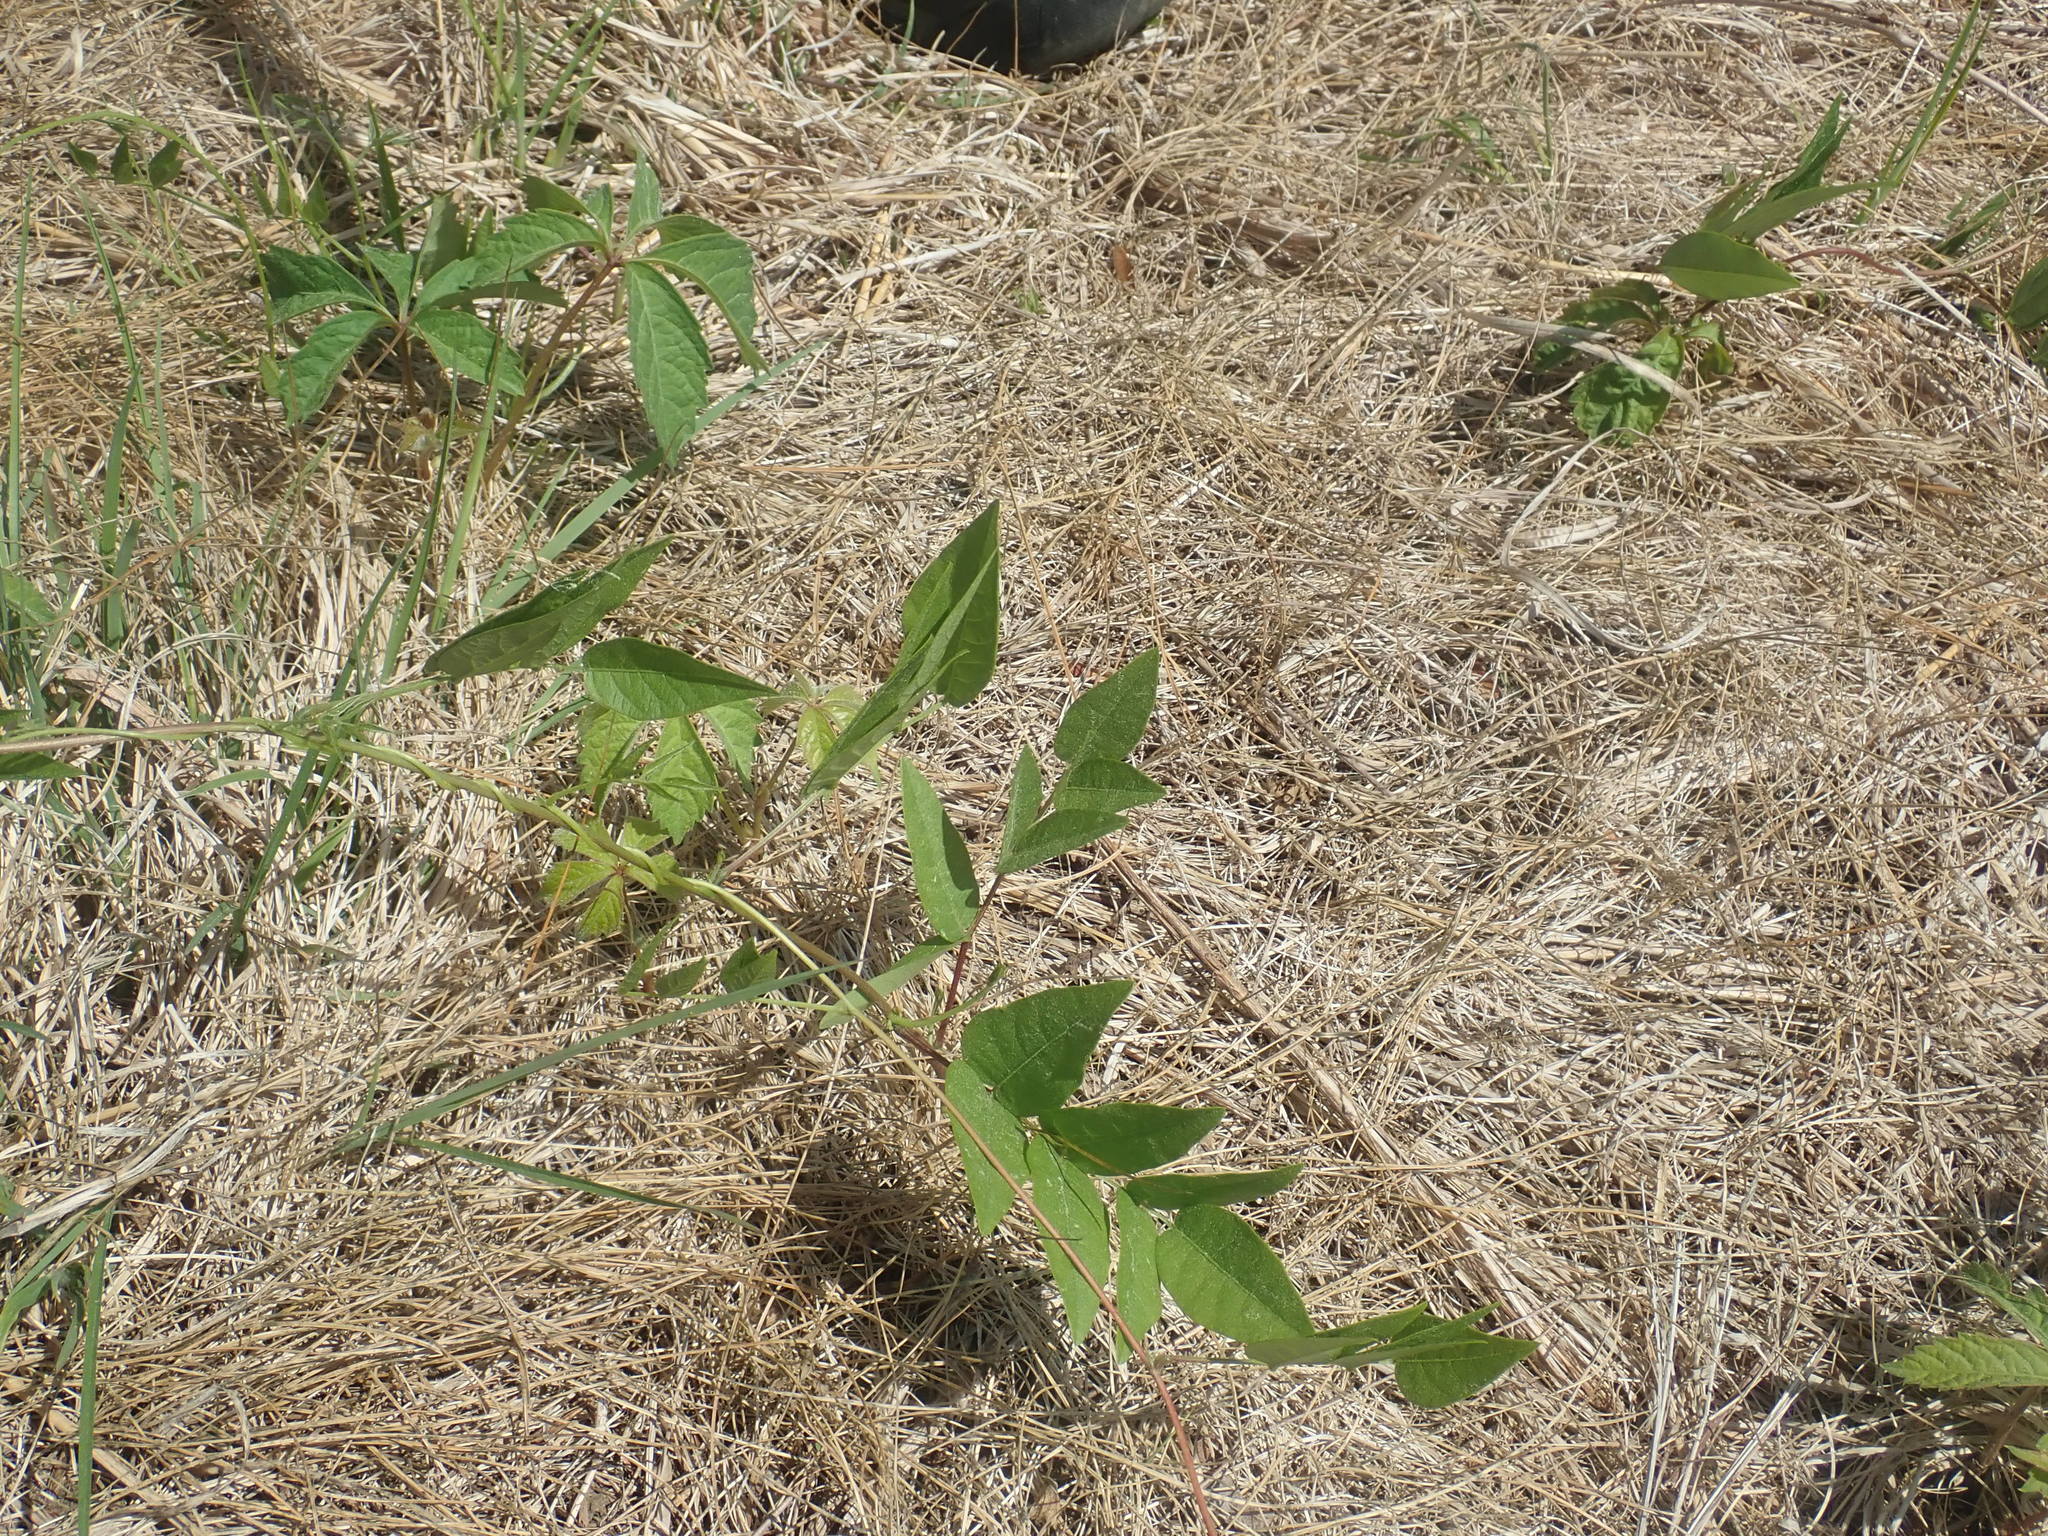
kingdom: Plantae
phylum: Tracheophyta
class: Magnoliopsida
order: Fabales
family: Fabaceae
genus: Apios
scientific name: Apios americana
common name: American potato-bean
